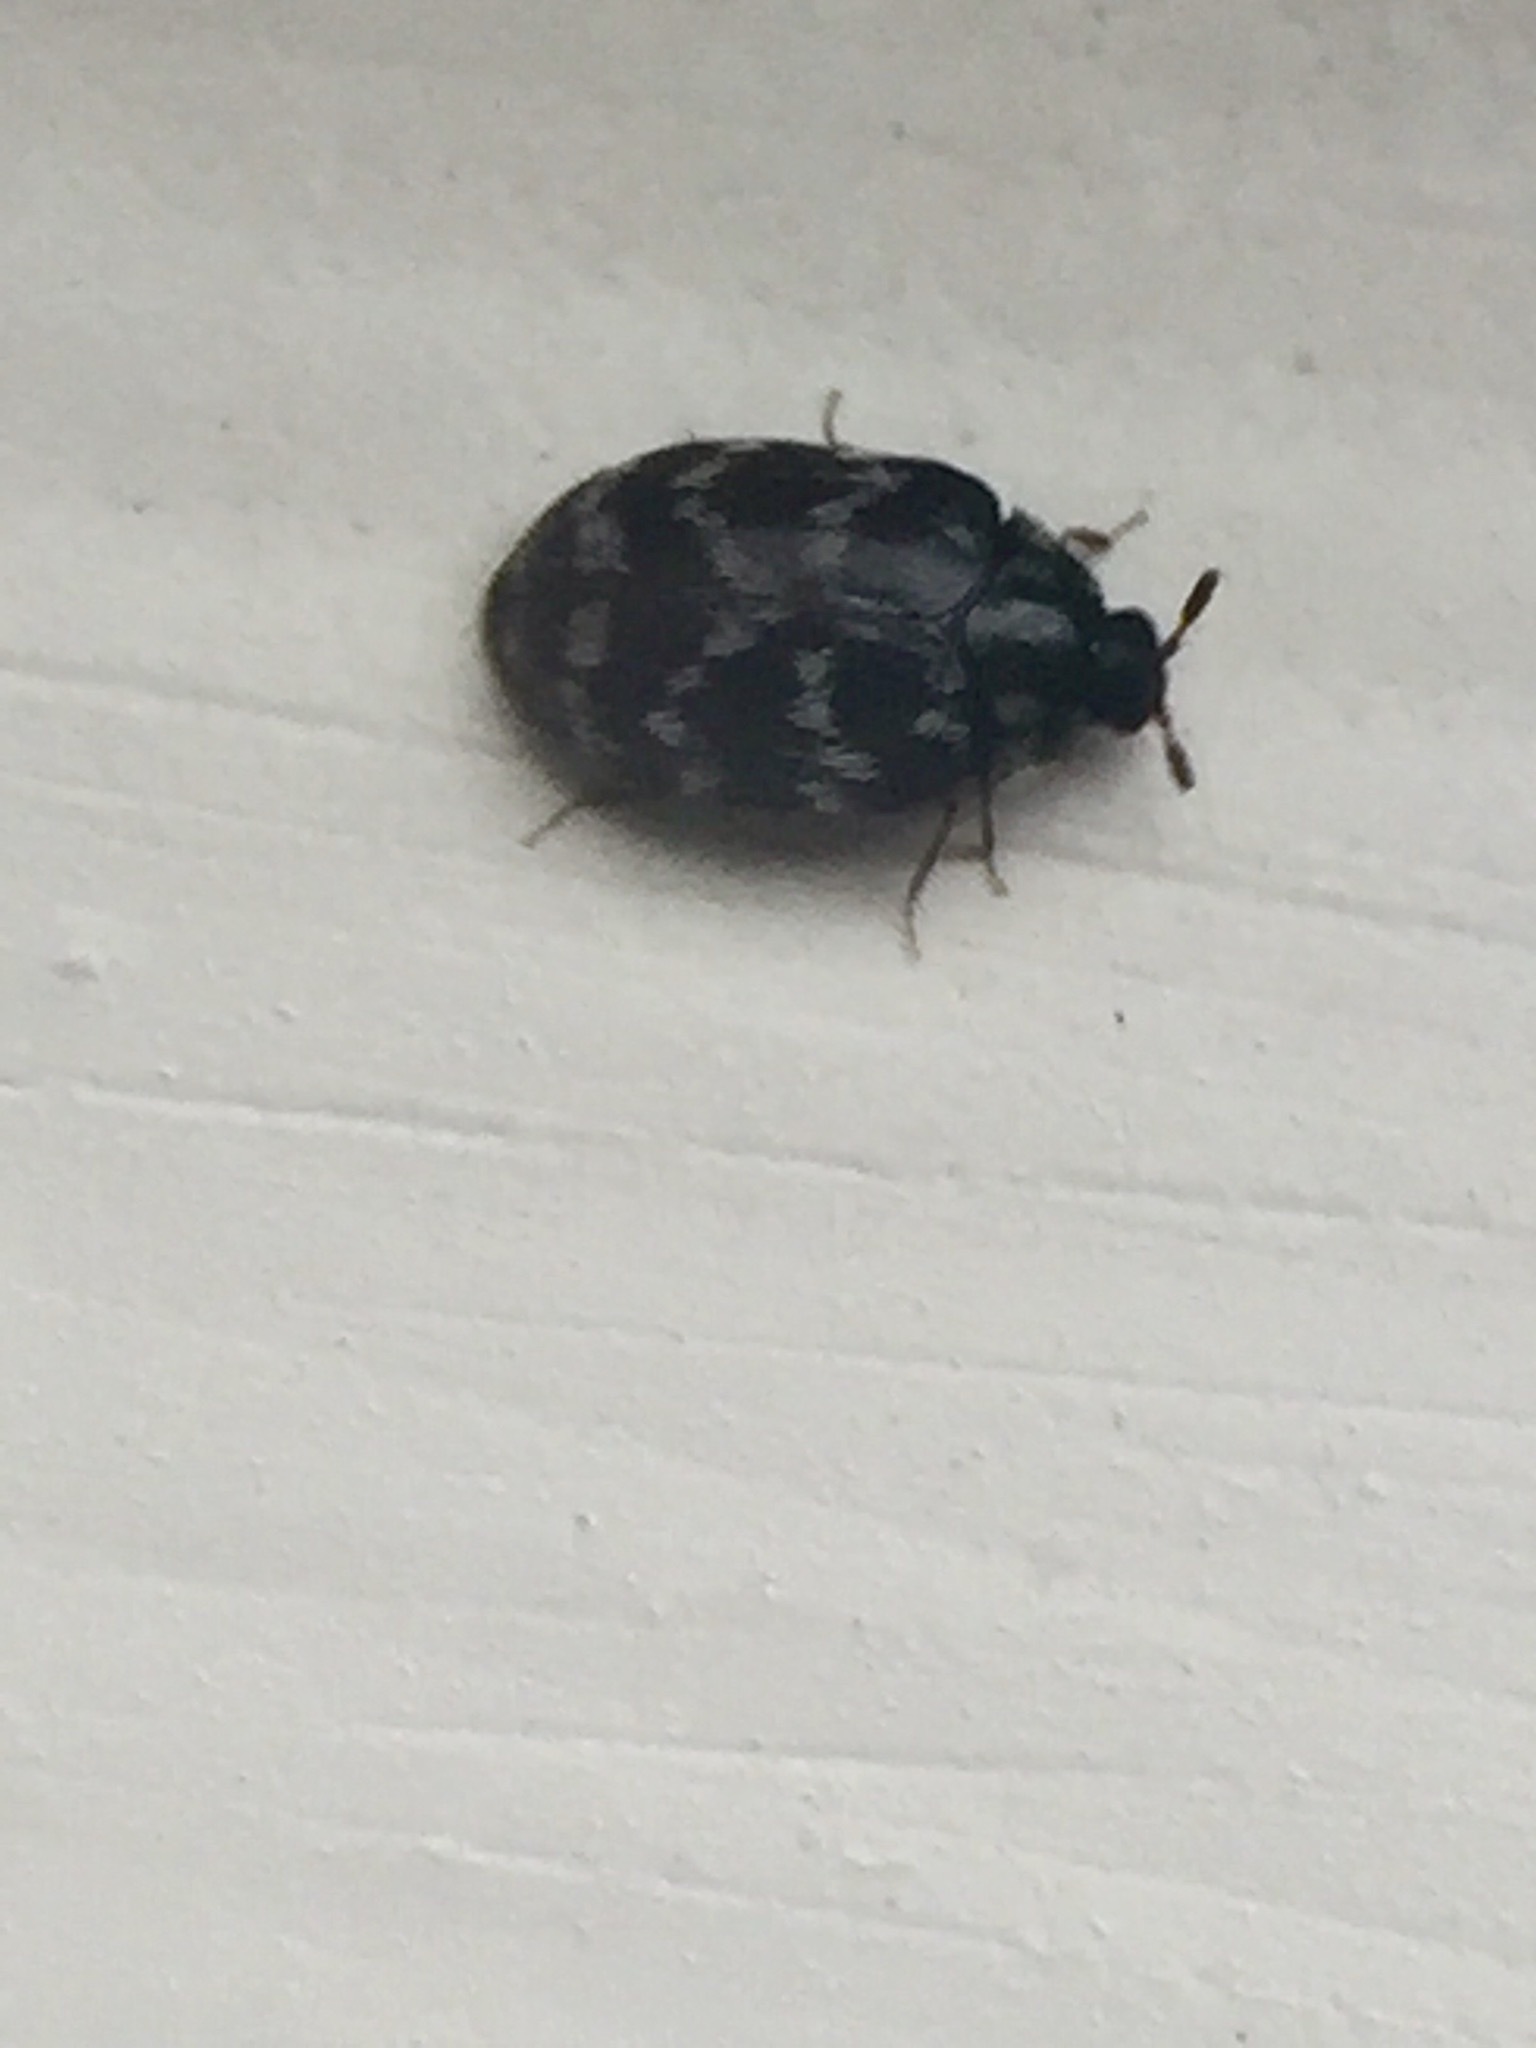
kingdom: Animalia
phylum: Arthropoda
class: Insecta
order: Coleoptera
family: Dermestidae
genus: Anthrenocerus
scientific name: Anthrenocerus australis
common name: Australian carpet beetle
